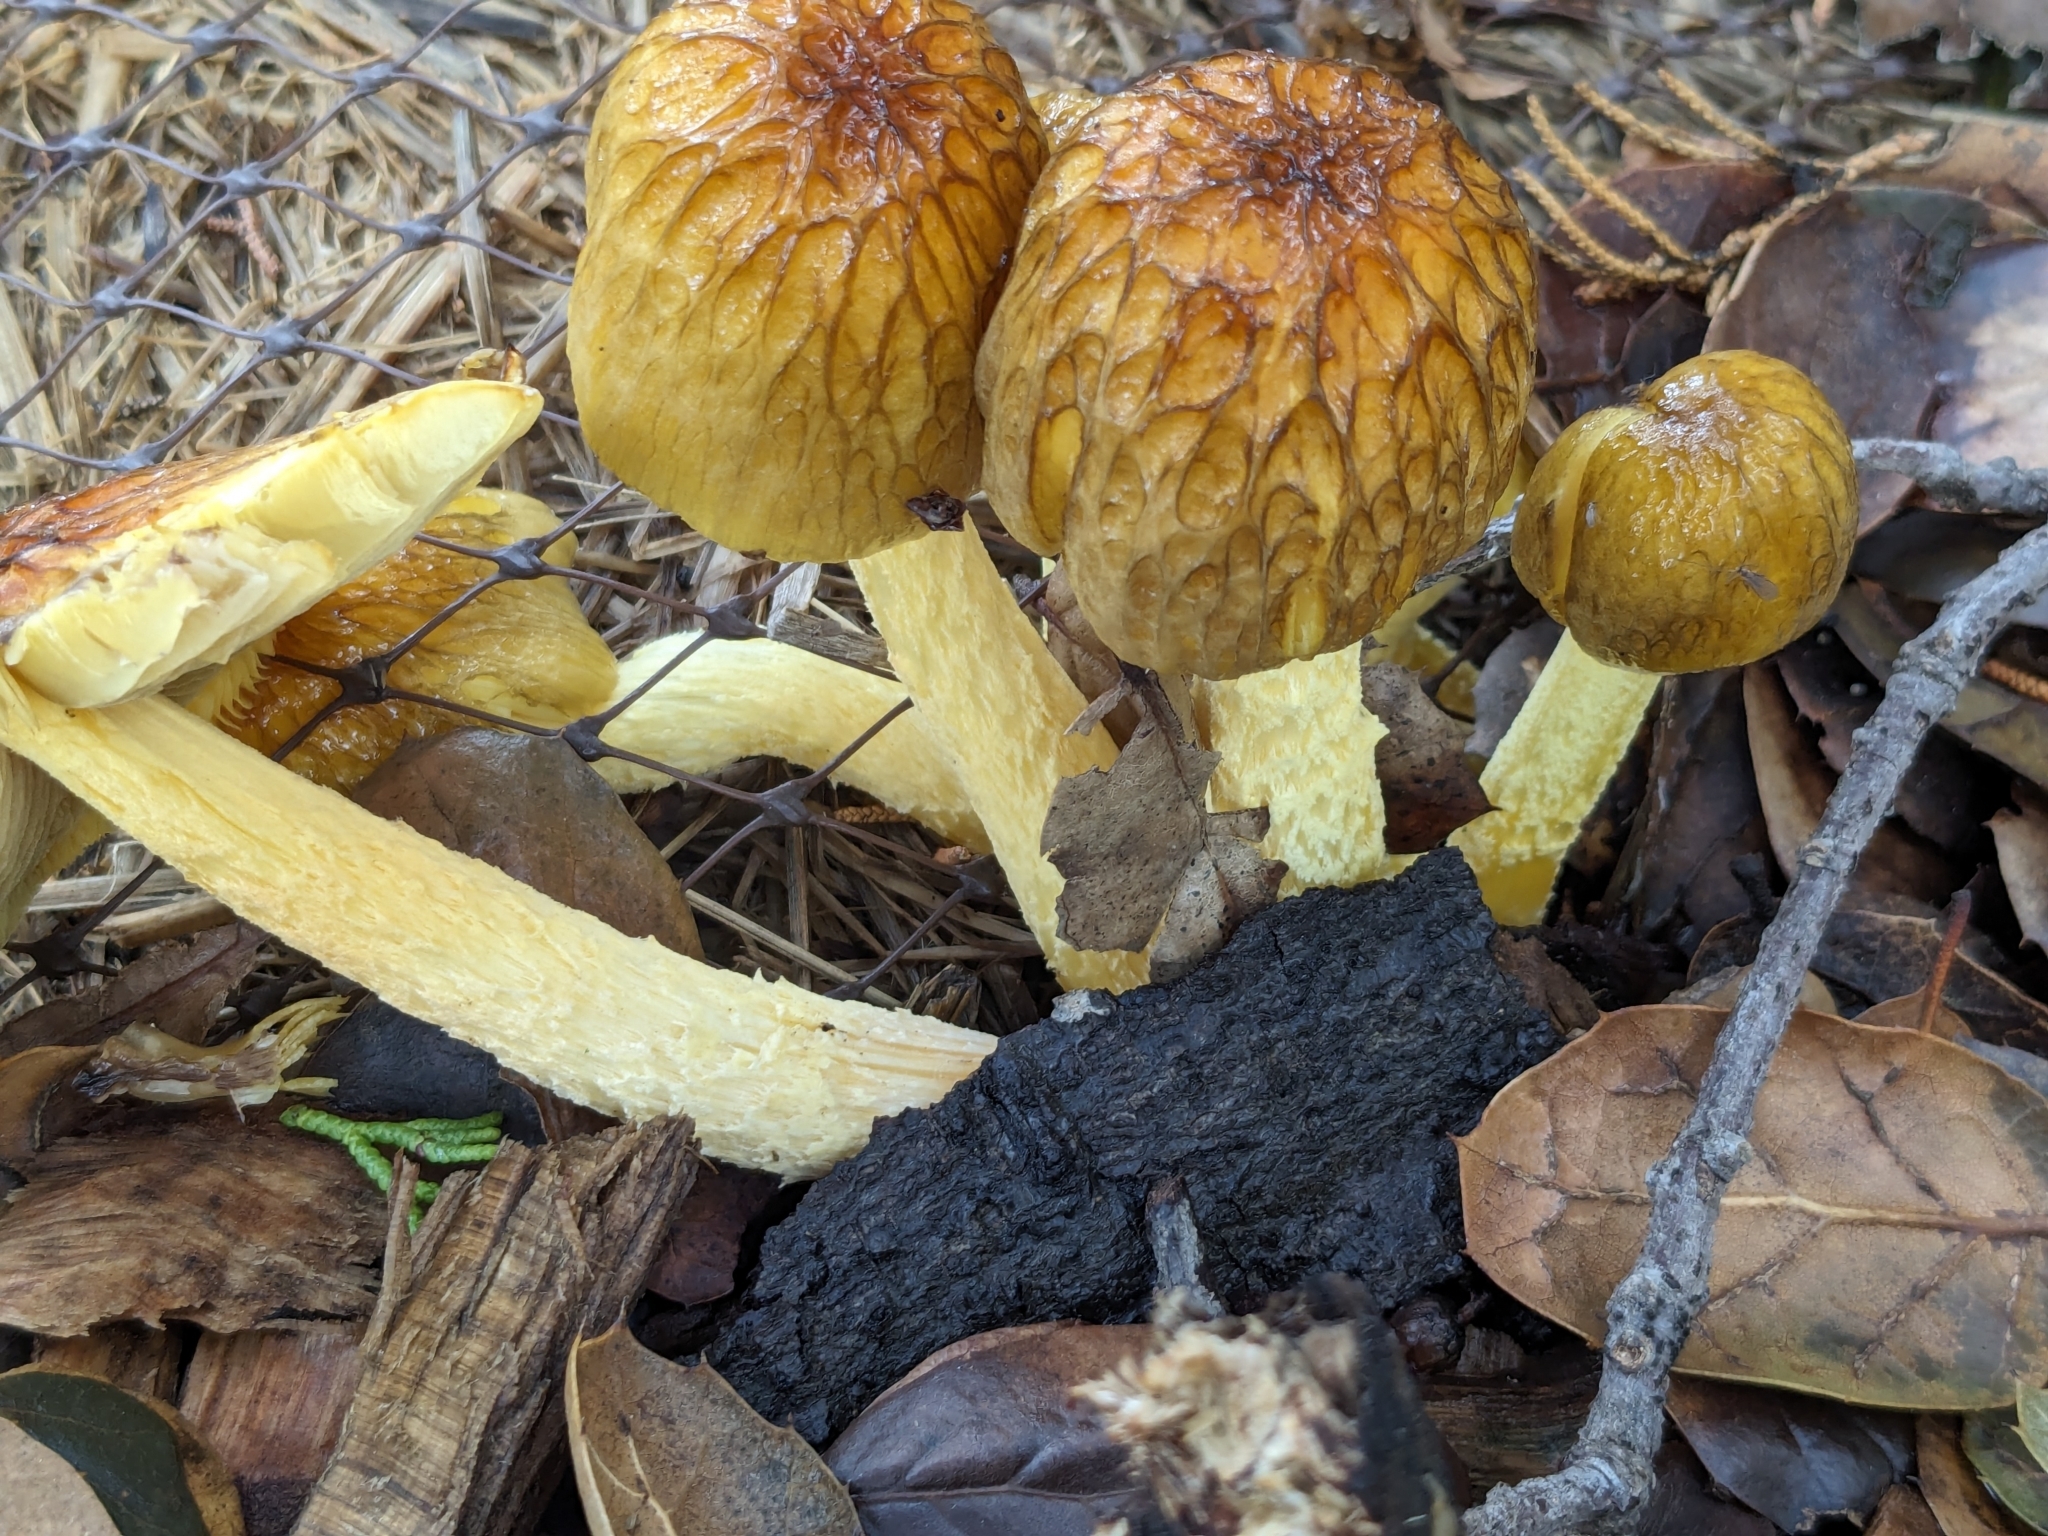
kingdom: Fungi
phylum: Basidiomycota
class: Agaricomycetes
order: Agaricales
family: Bolbitiaceae
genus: Bolbitius
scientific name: Bolbitius titubans
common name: Yellow fieldcap
